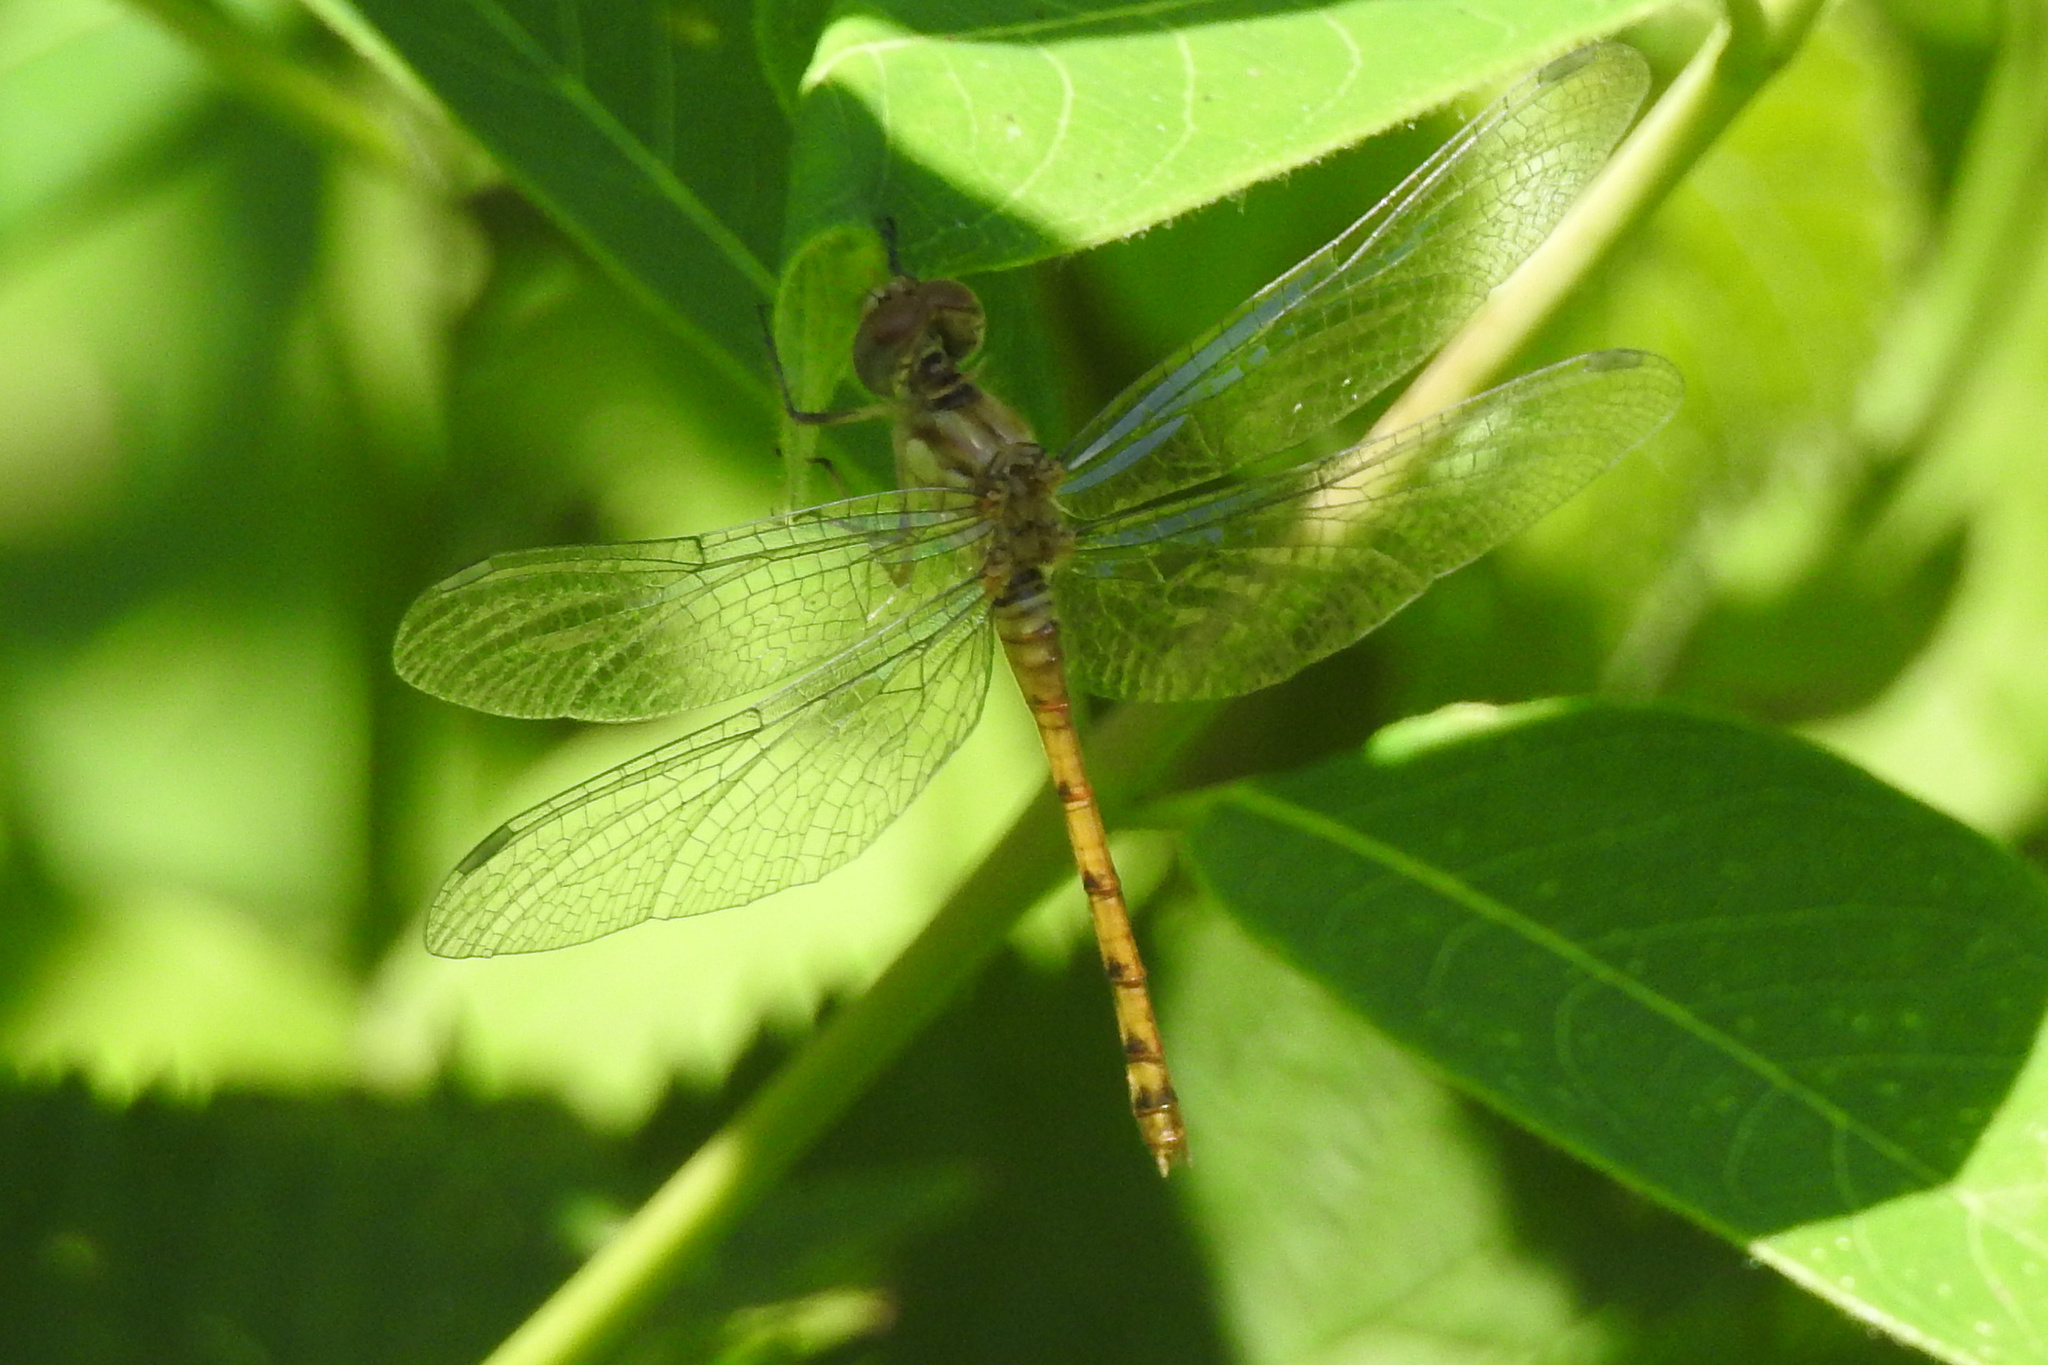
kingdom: Animalia
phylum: Arthropoda
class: Insecta
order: Odonata
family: Libellulidae
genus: Sympetrum
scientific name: Sympetrum ambiguum
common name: Blue-faced meadowhawk
